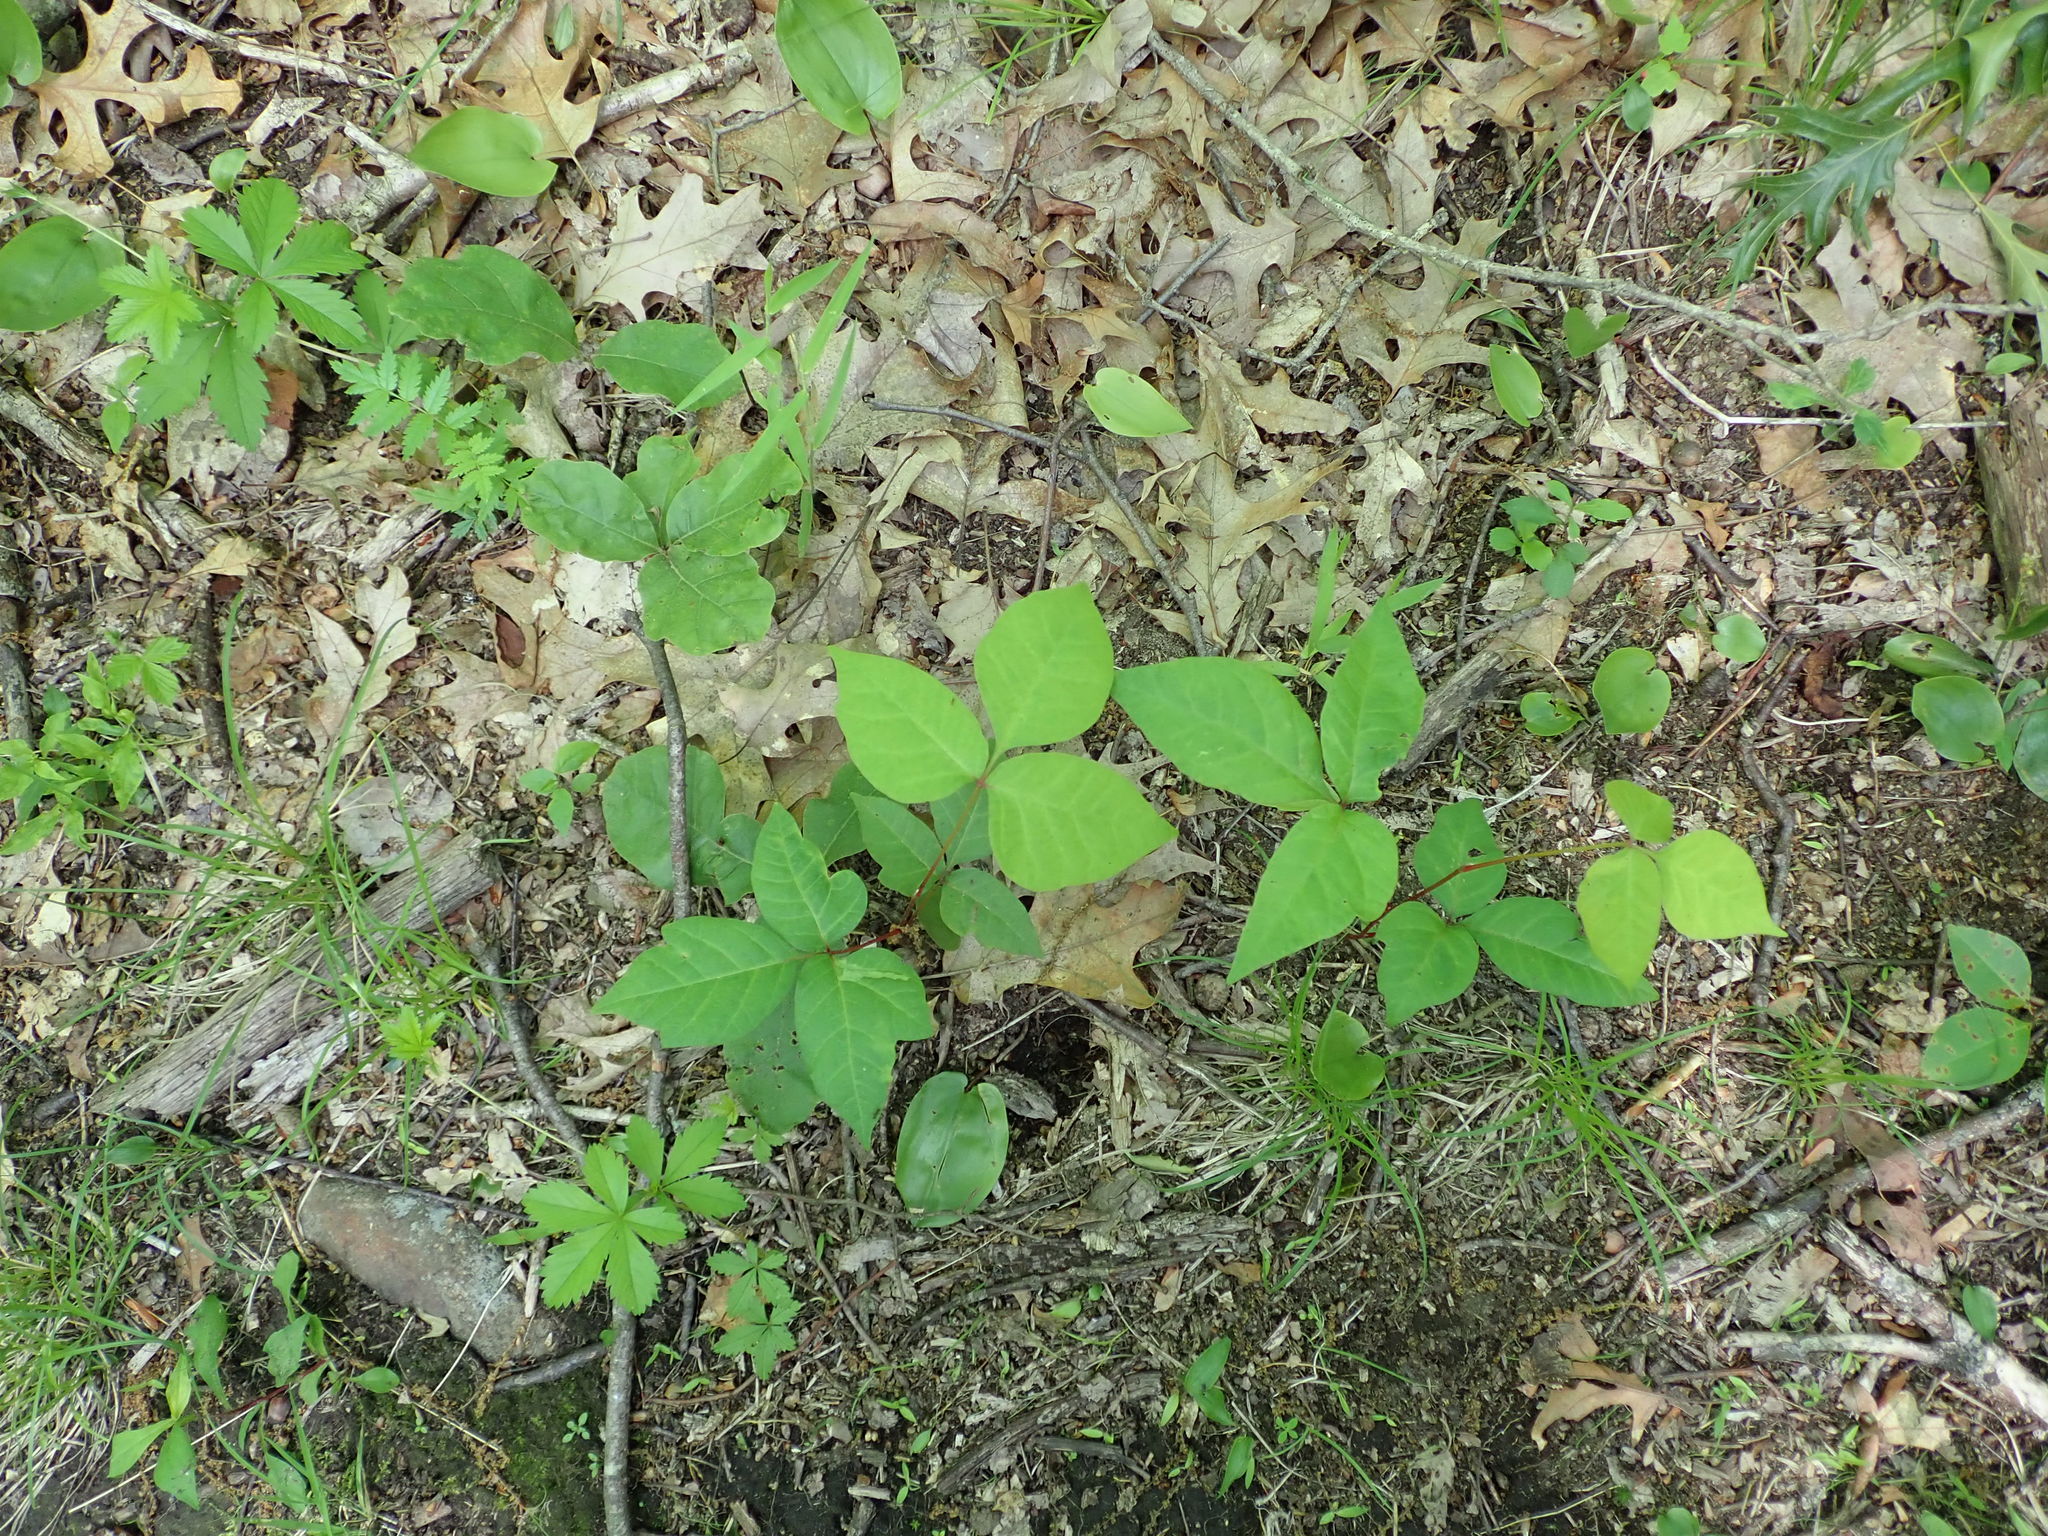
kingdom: Plantae
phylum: Tracheophyta
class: Magnoliopsida
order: Sapindales
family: Anacardiaceae
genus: Toxicodendron
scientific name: Toxicodendron radicans
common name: Poison ivy
